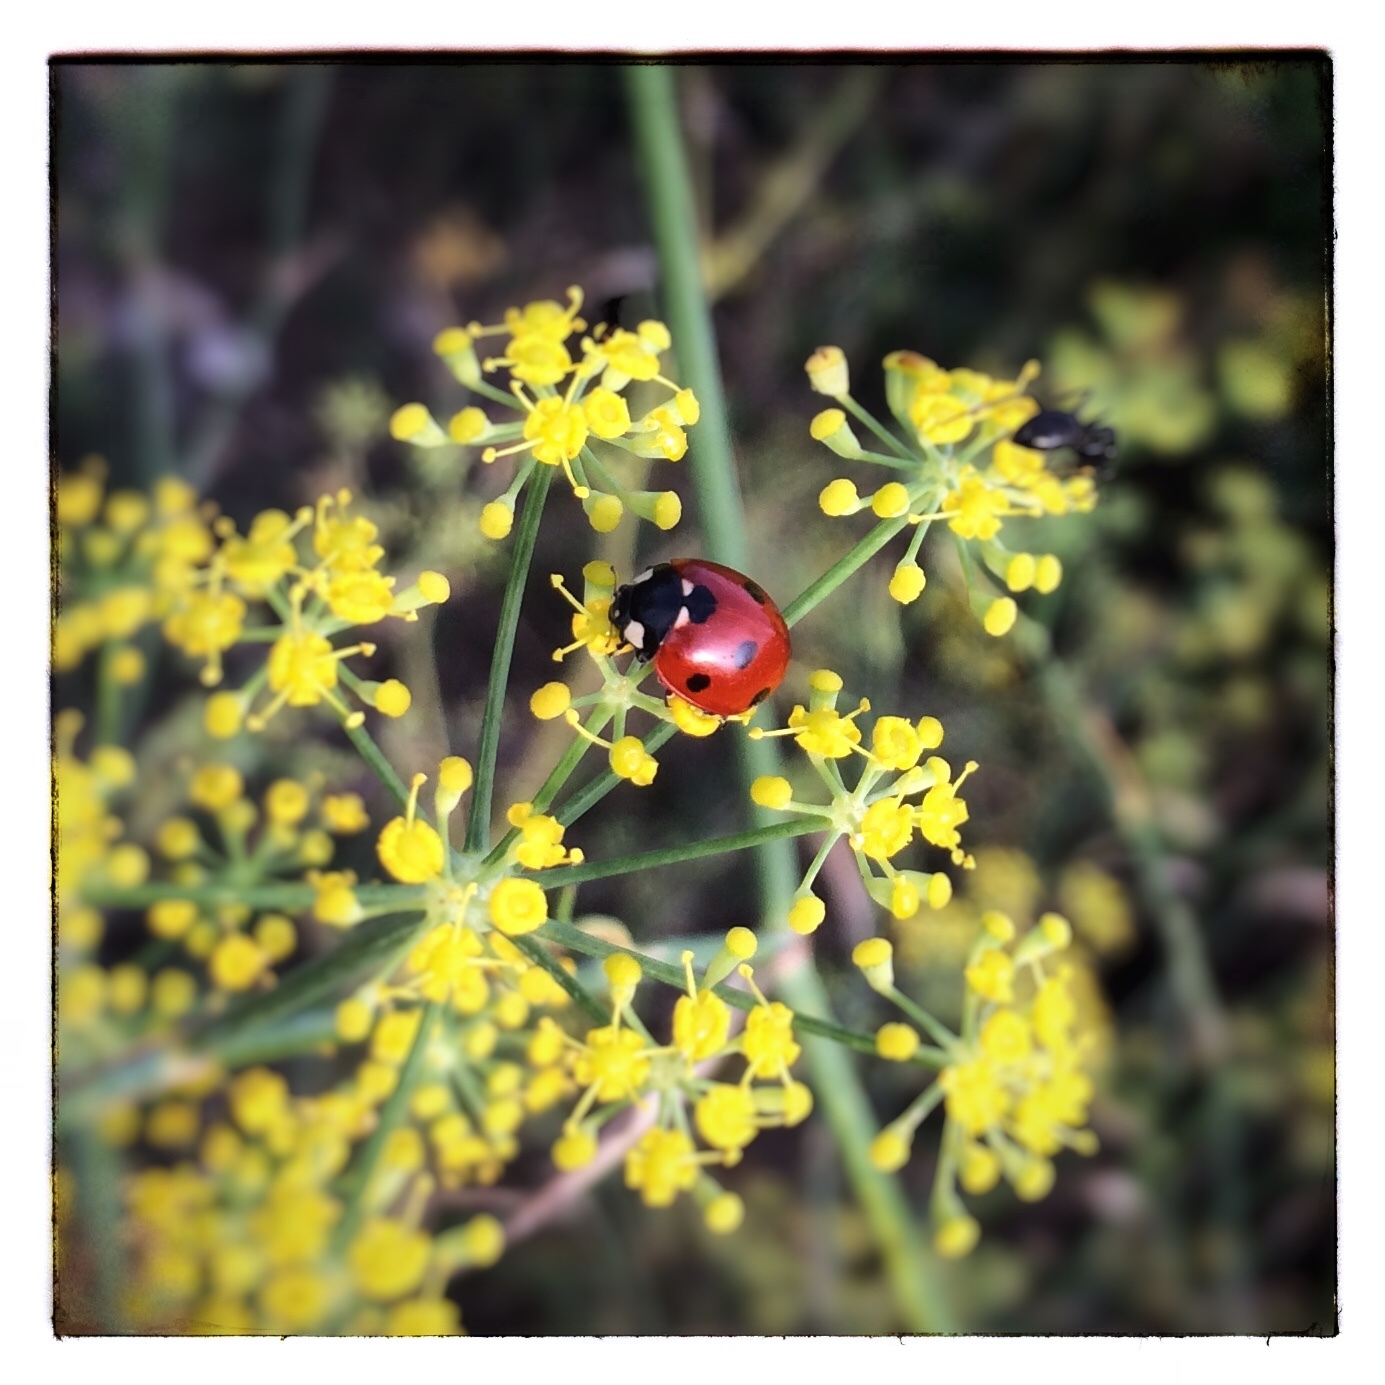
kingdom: Animalia
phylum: Arthropoda
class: Insecta
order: Coleoptera
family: Coccinellidae
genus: Coccinella
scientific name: Coccinella septempunctata
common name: Sevenspotted lady beetle
